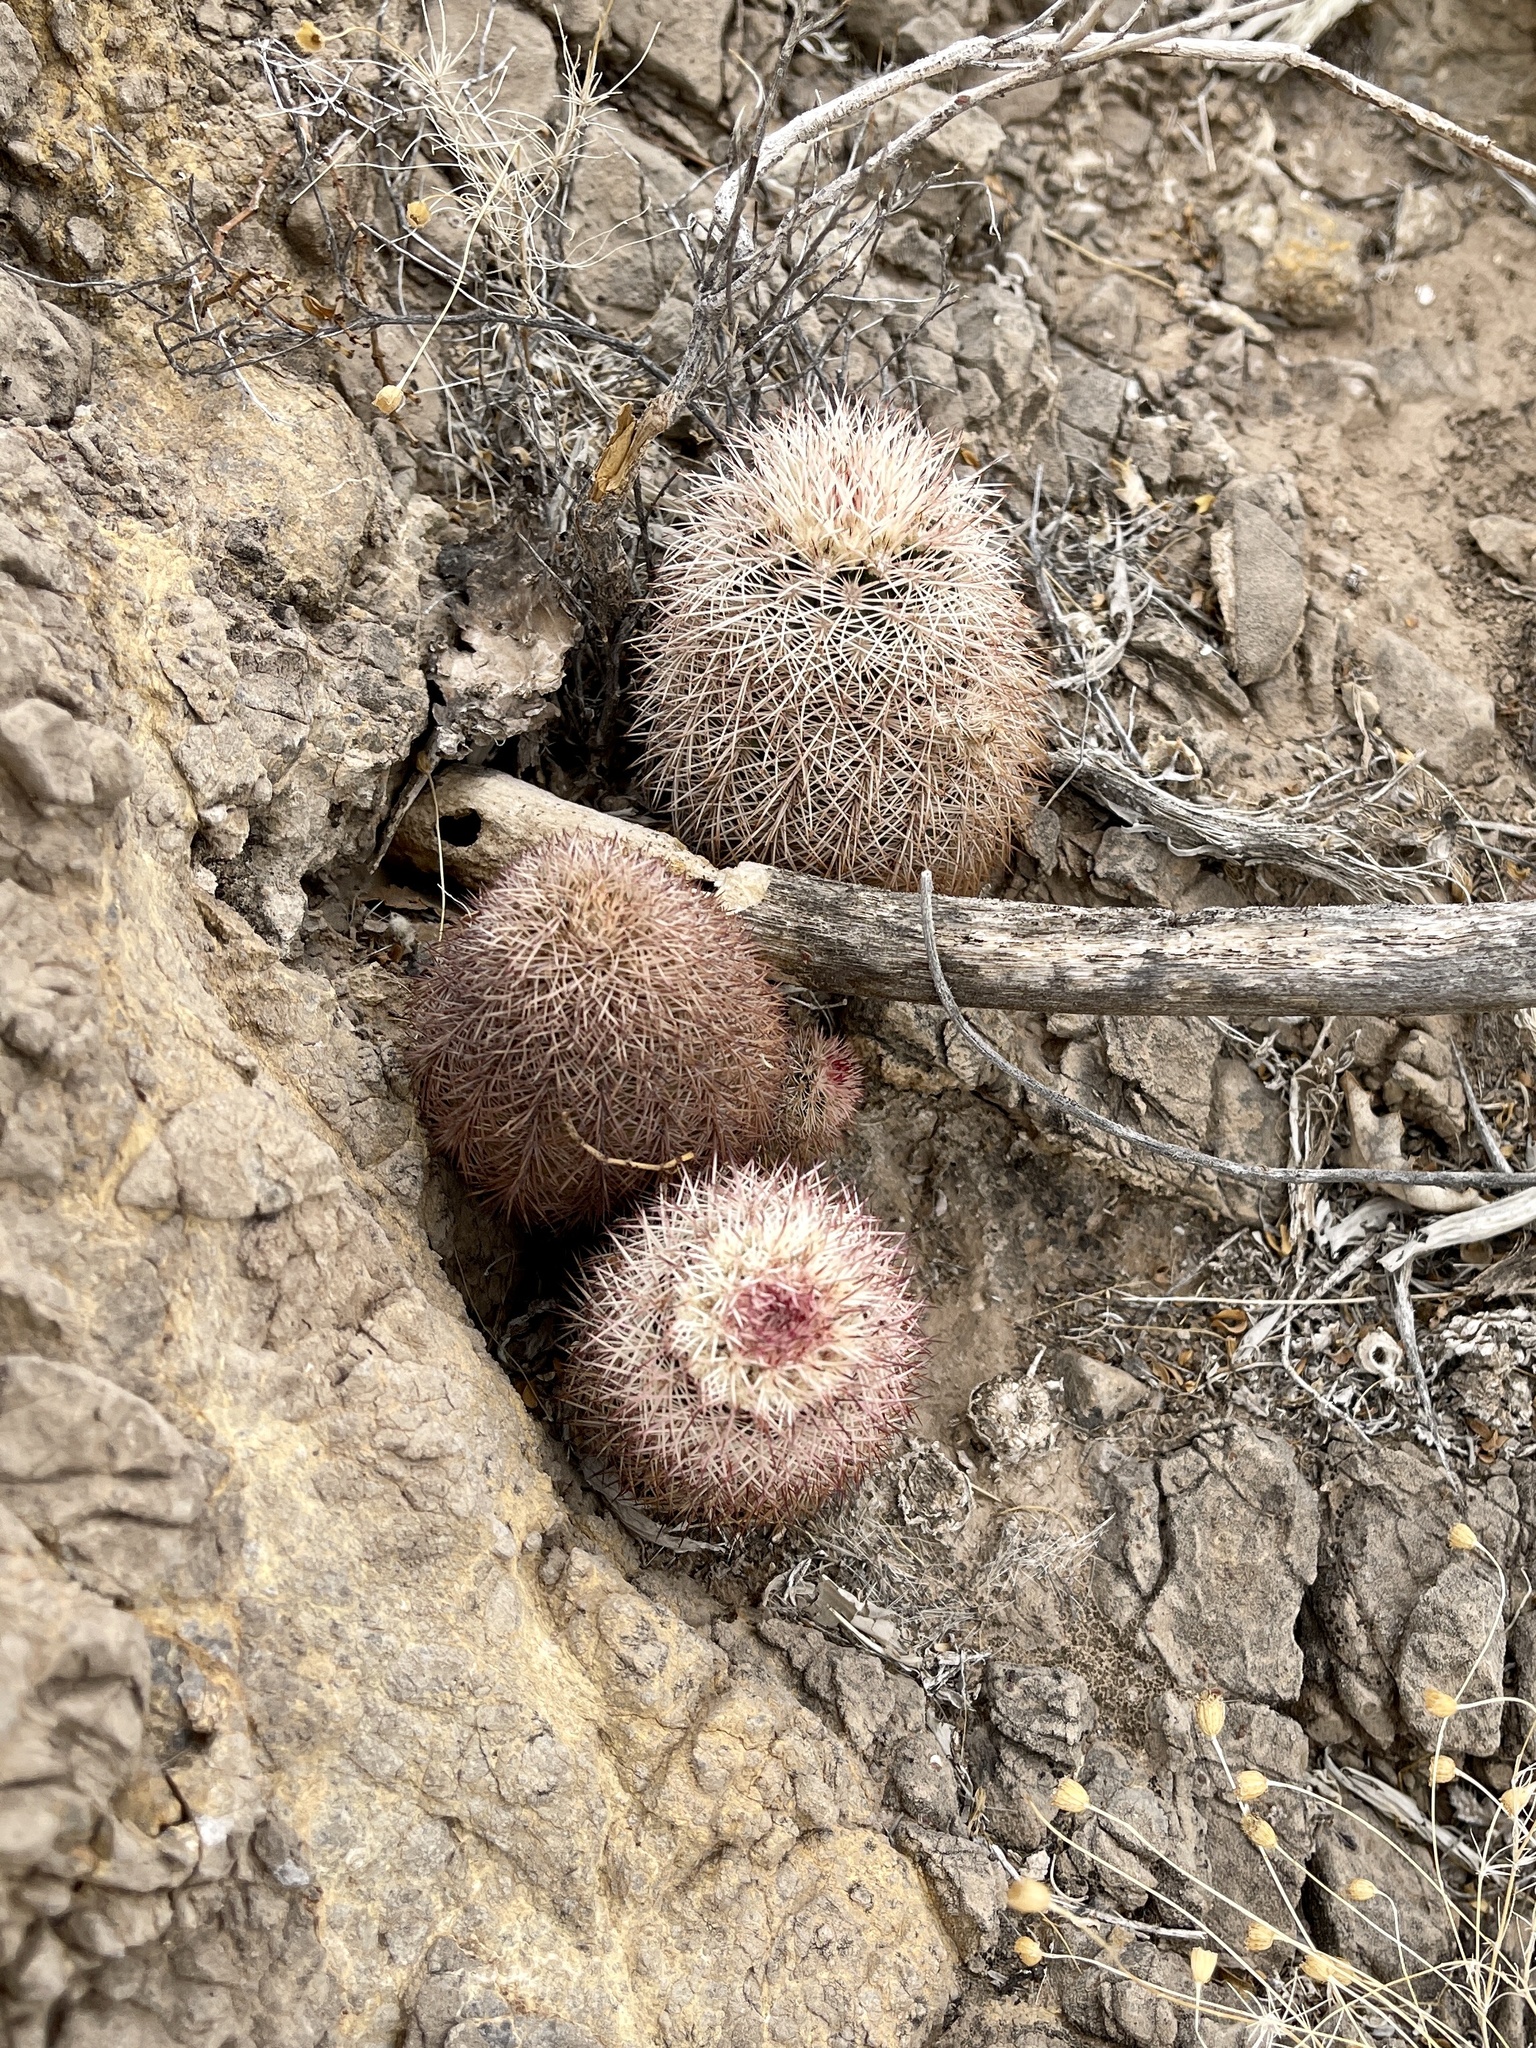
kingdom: Plantae
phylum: Tracheophyta
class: Magnoliopsida
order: Caryophyllales
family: Cactaceae
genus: Echinocereus
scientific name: Echinocereus dasyacanthus
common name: Spiny hedgehog cactus
